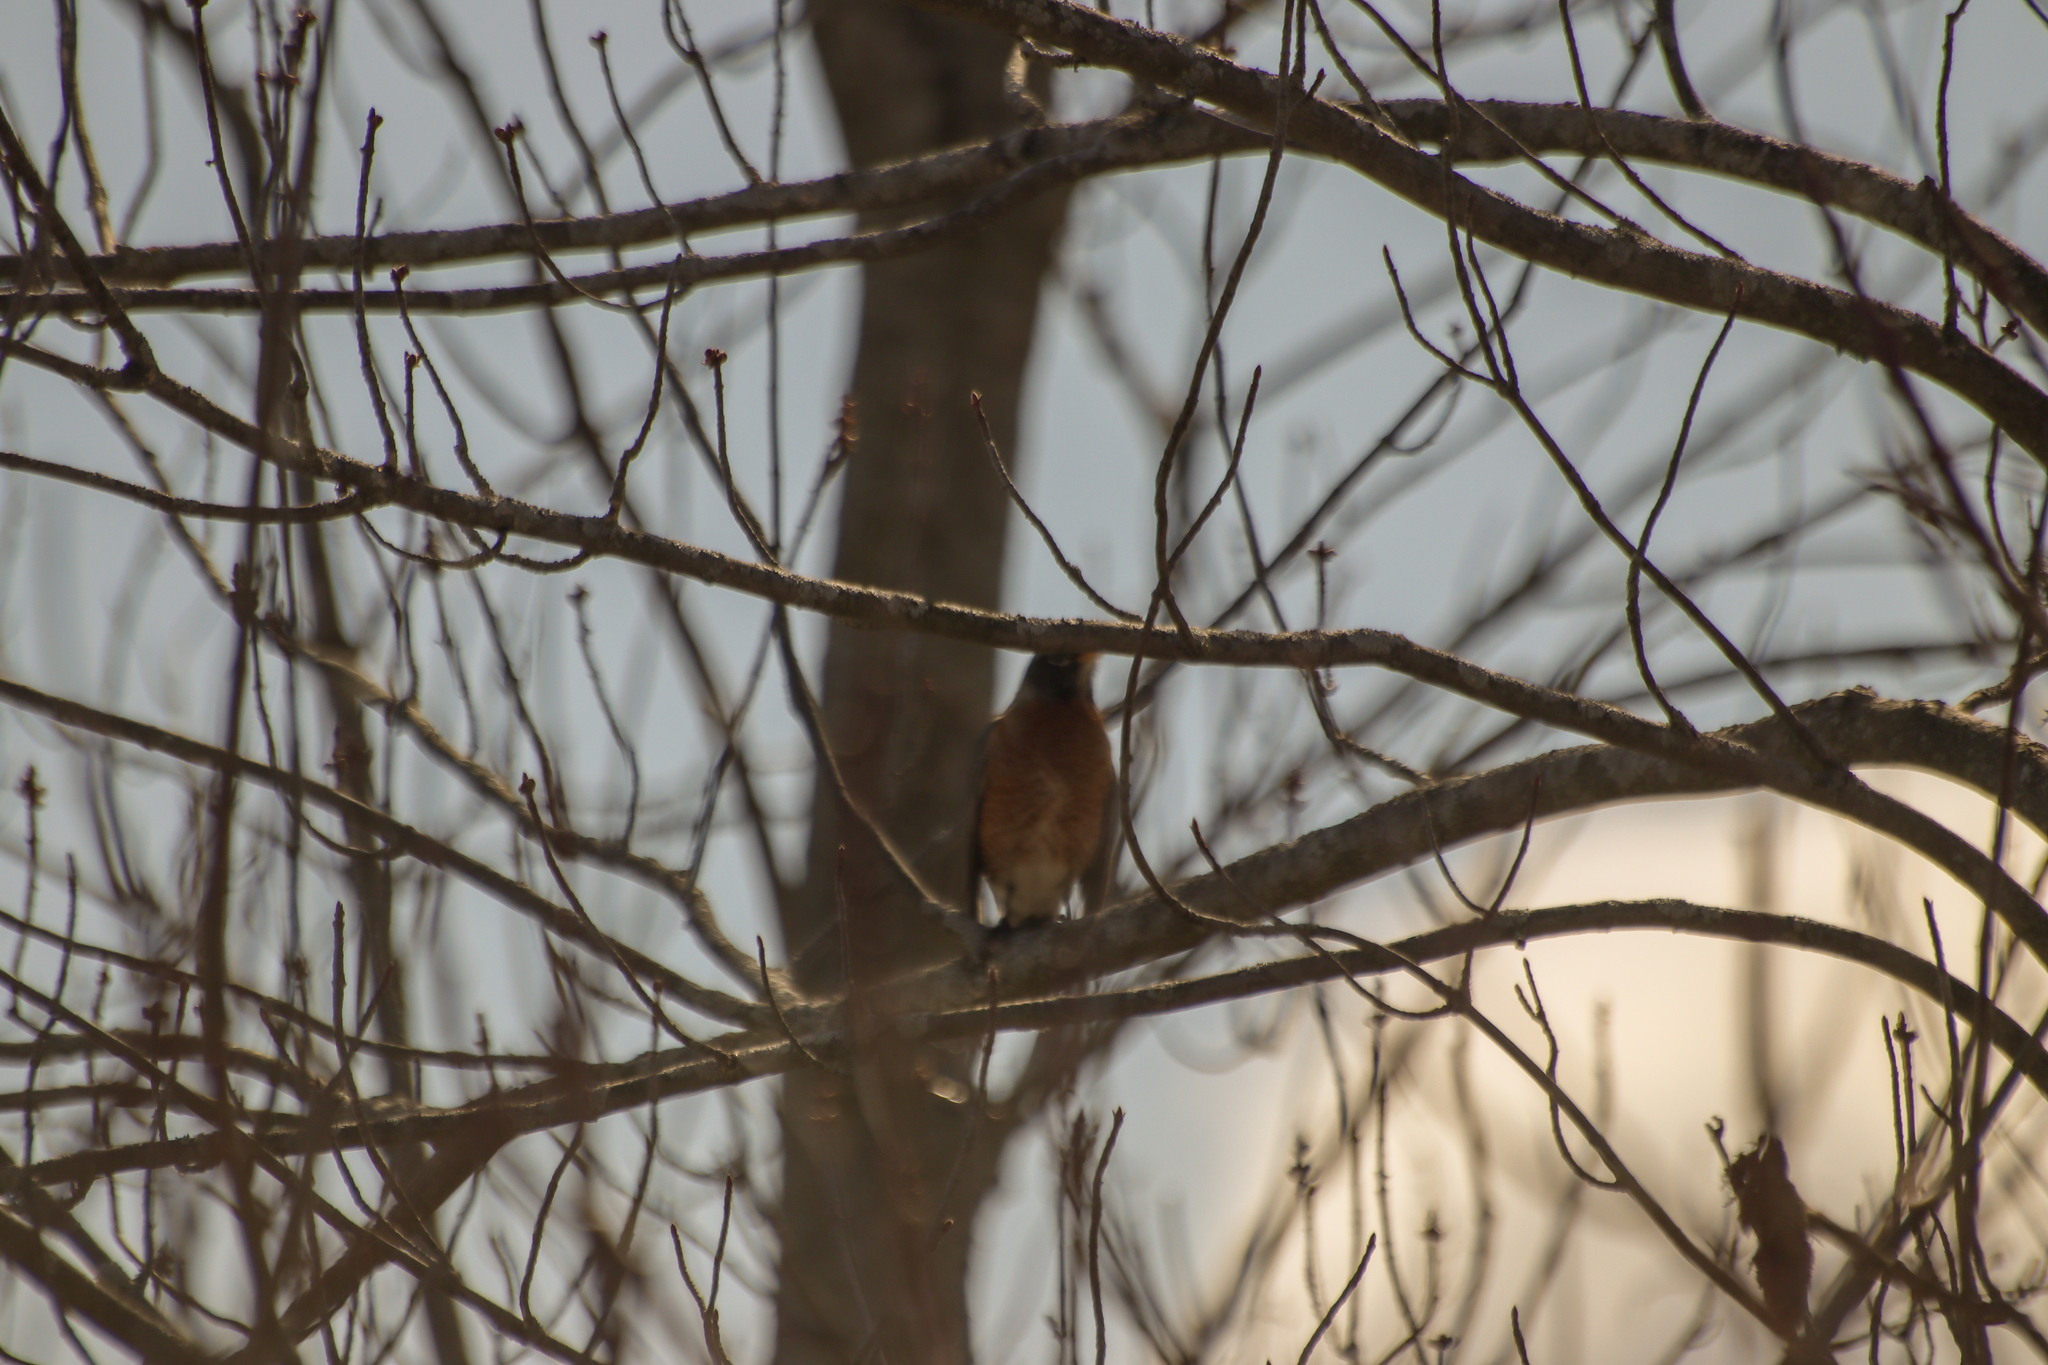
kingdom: Animalia
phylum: Chordata
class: Aves
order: Passeriformes
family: Turdidae
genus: Turdus
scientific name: Turdus migratorius
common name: American robin
